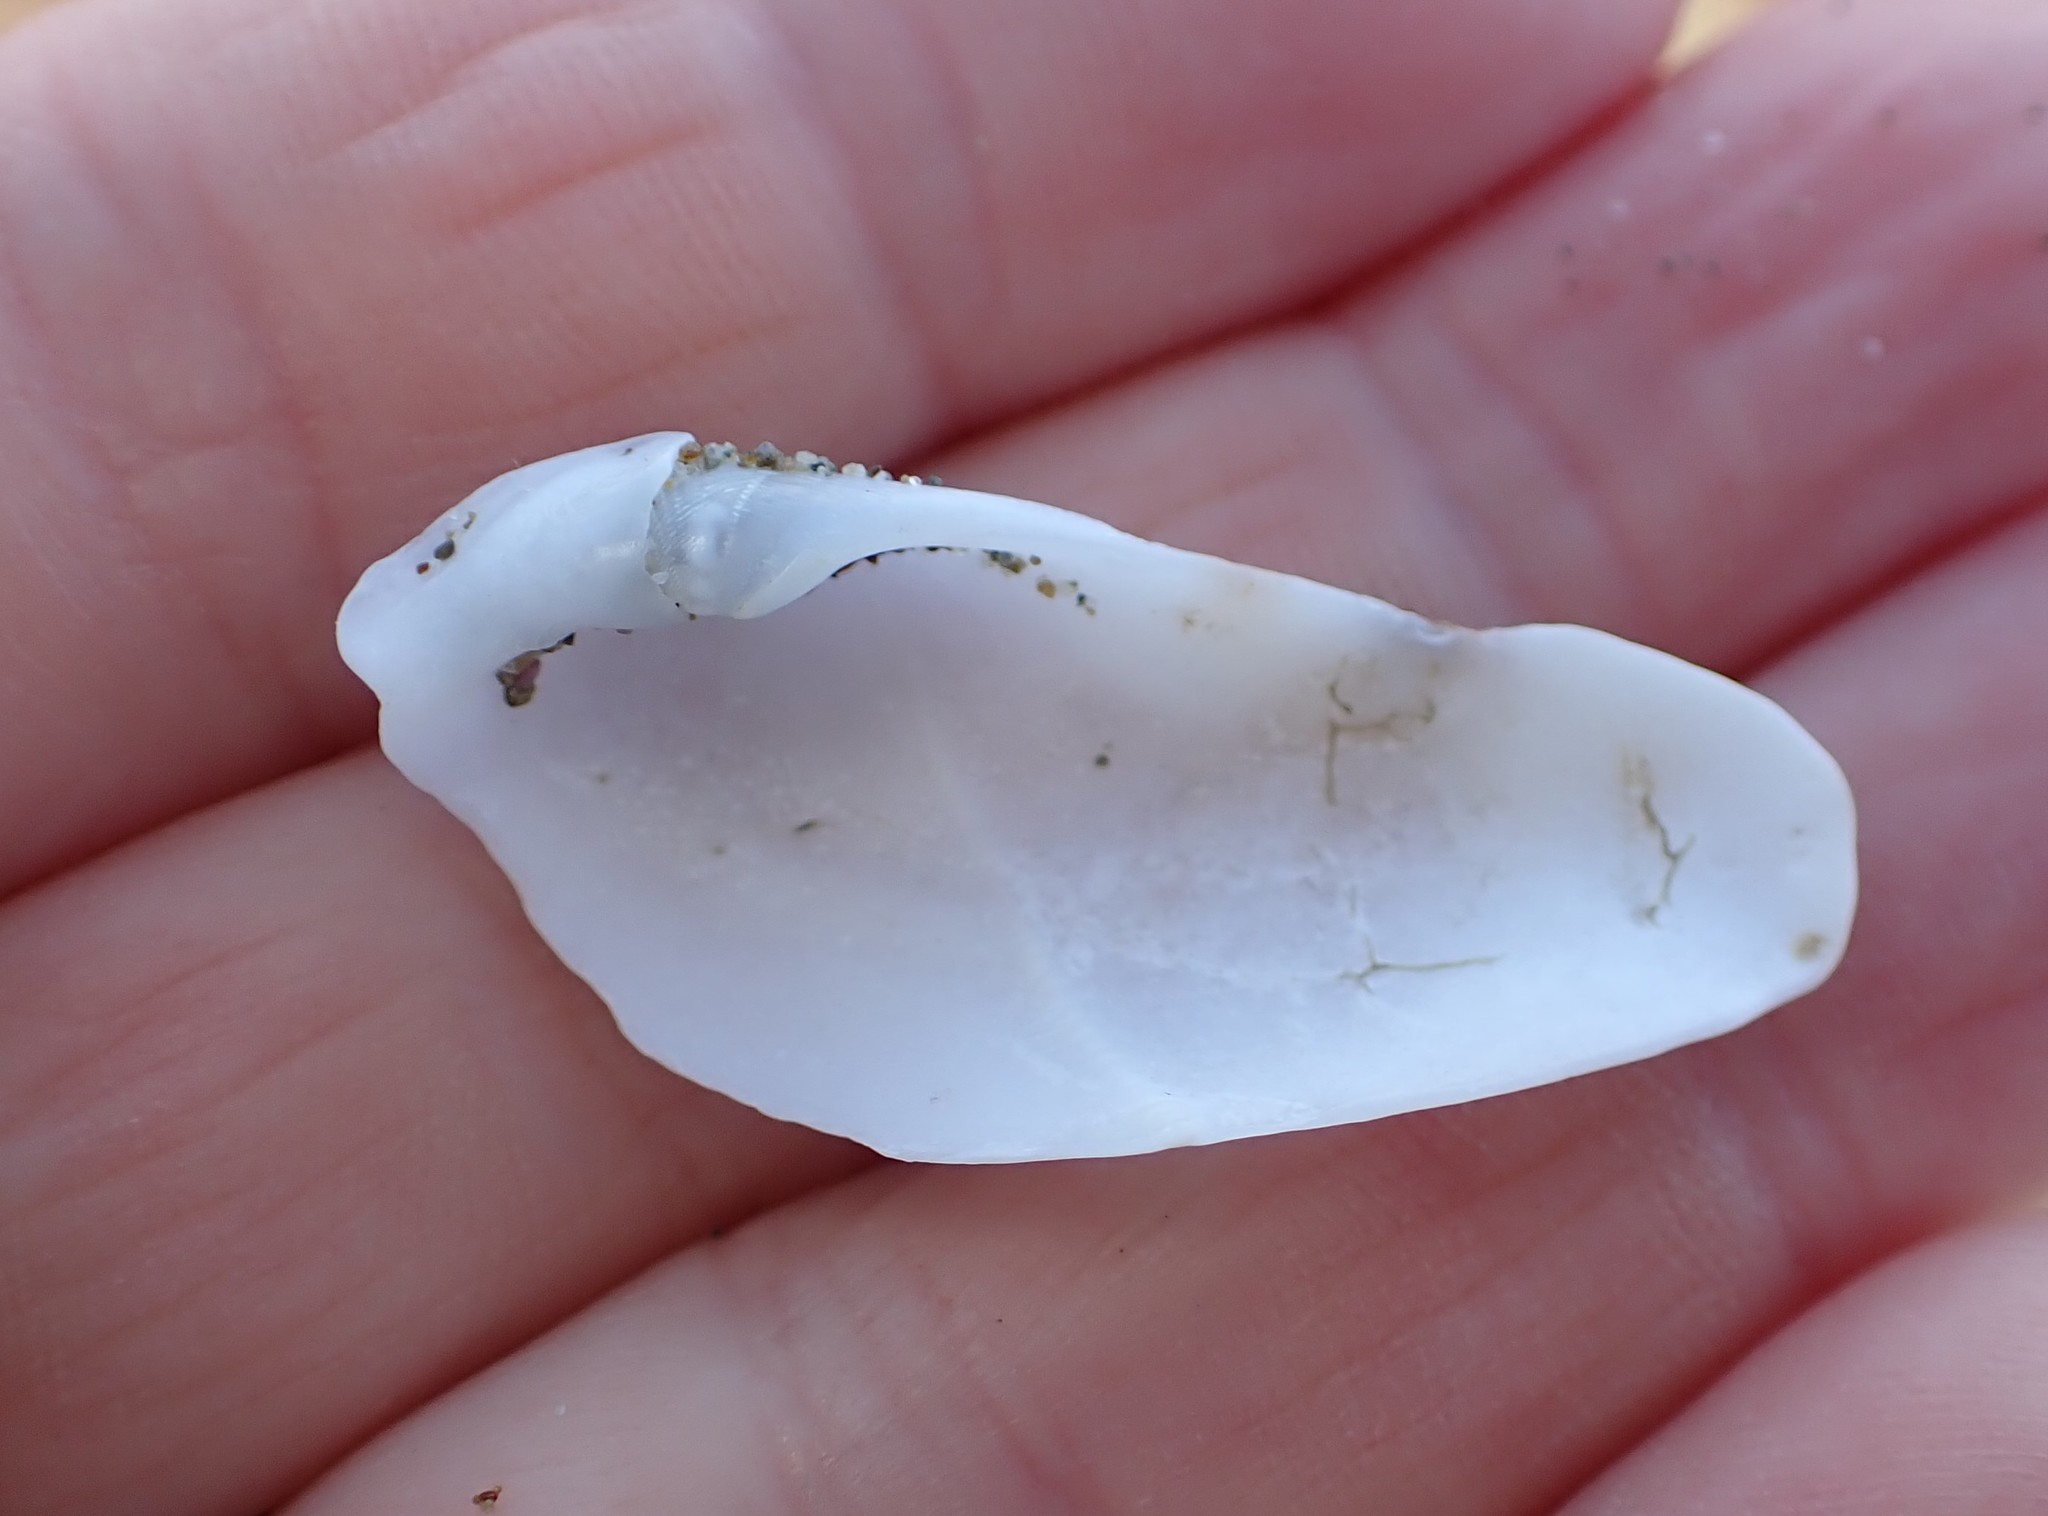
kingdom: Animalia
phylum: Mollusca
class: Bivalvia
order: Myida
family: Pholadidae
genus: Pholadidea
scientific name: Pholadidea suteri
